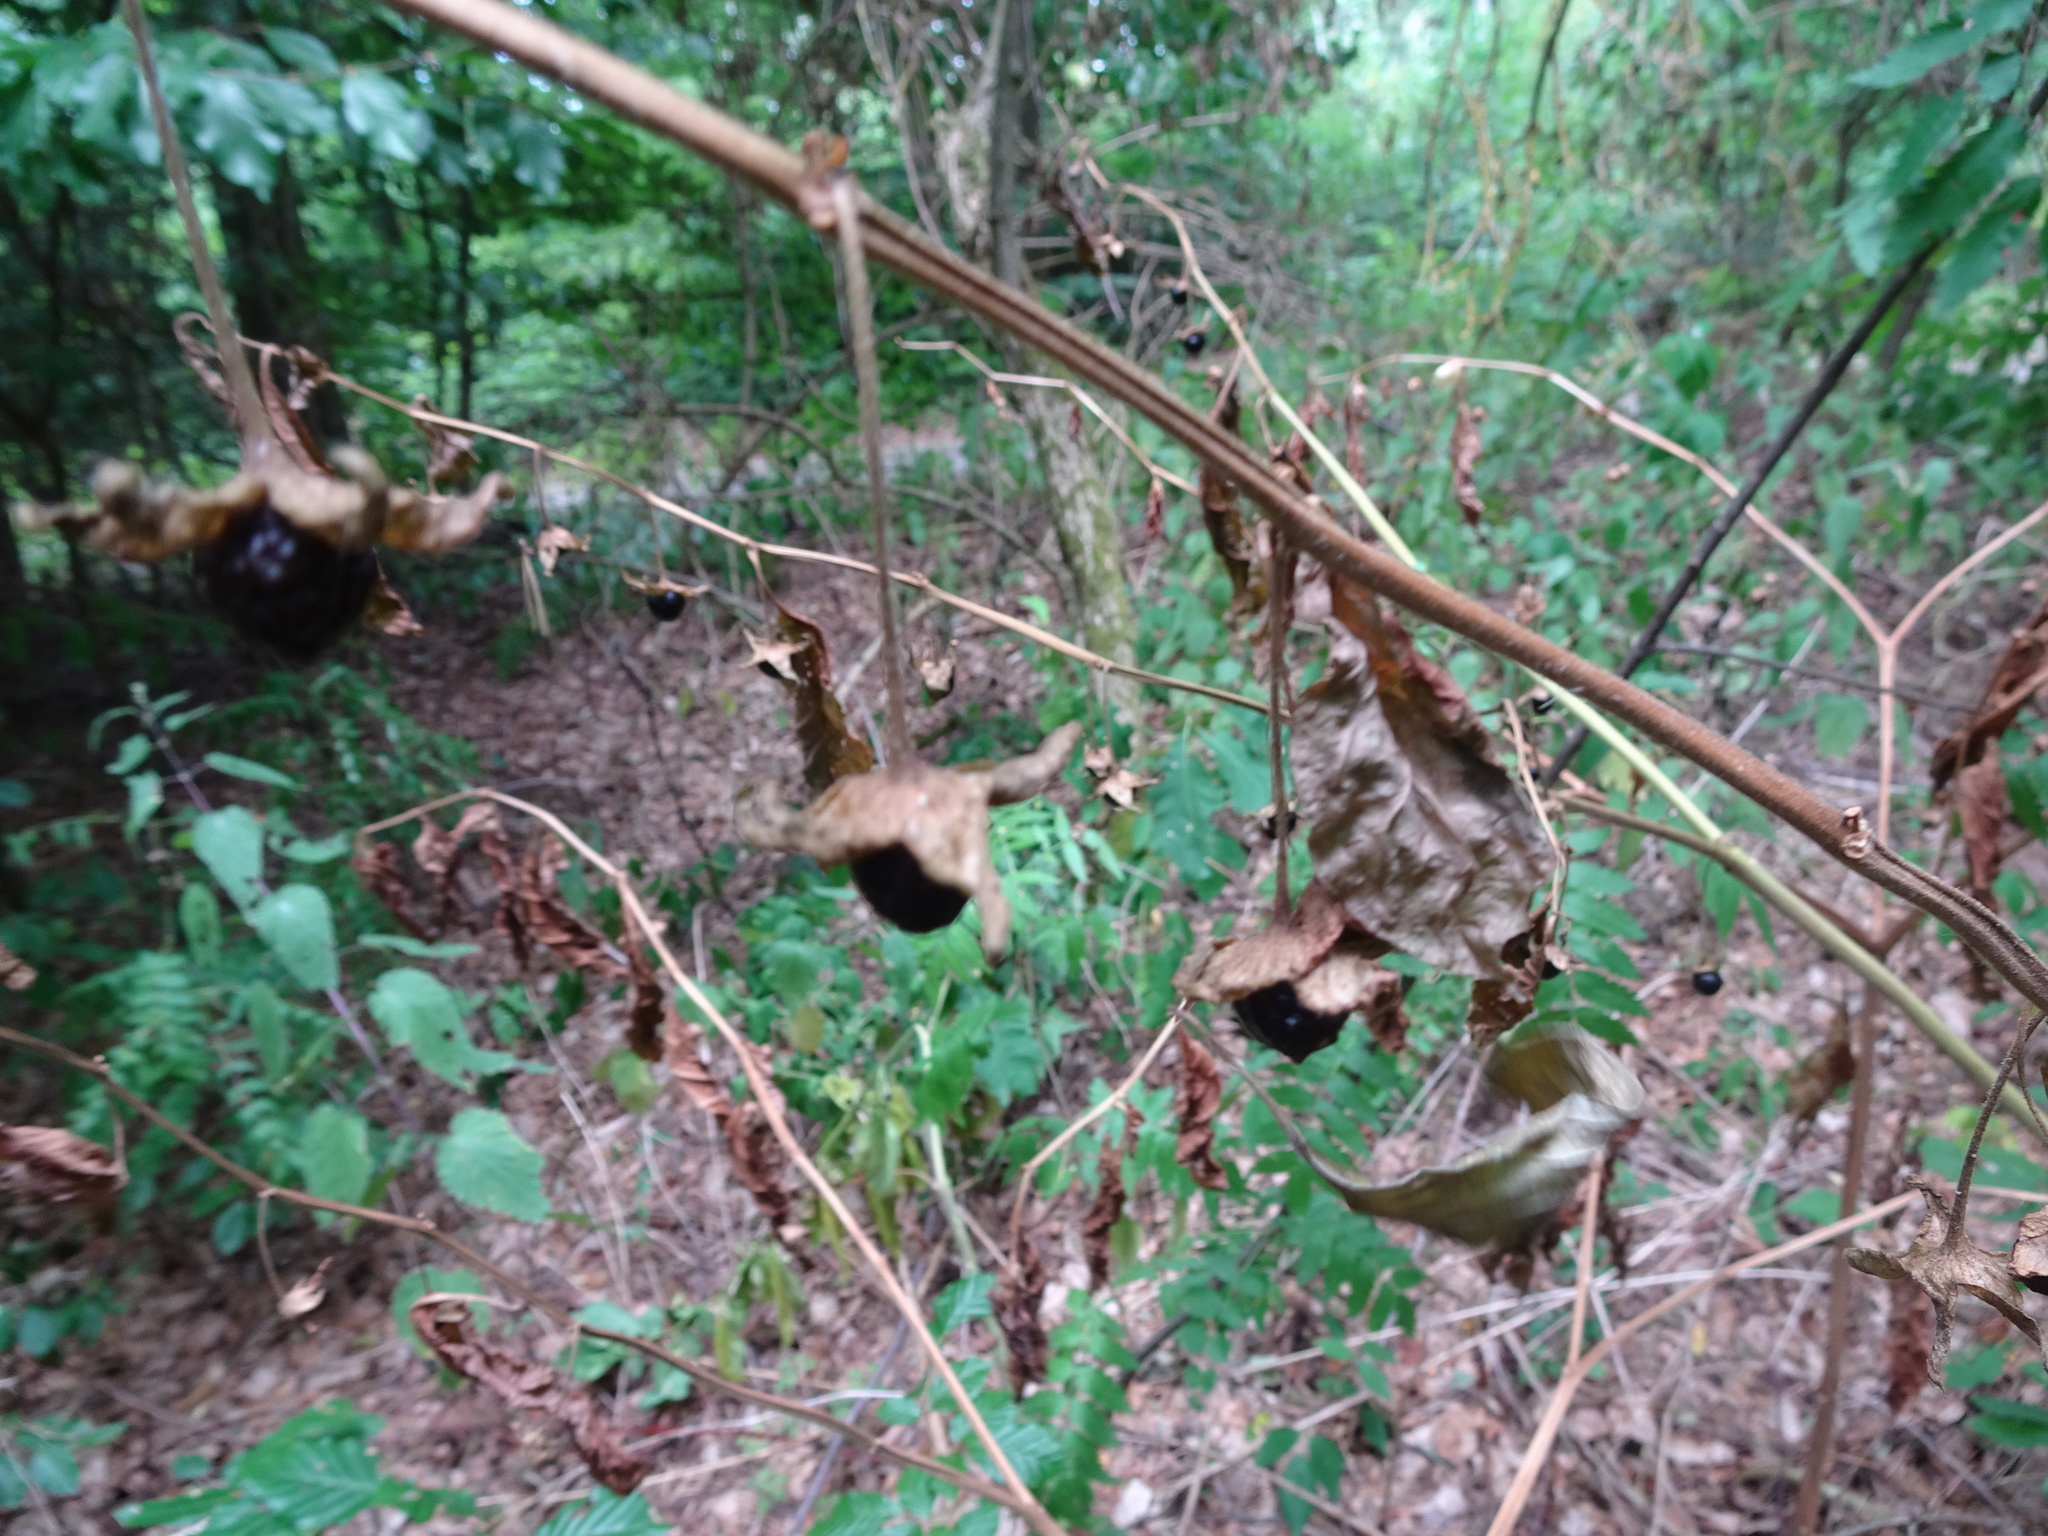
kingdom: Plantae
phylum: Tracheophyta
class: Magnoliopsida
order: Solanales
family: Solanaceae
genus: Atropa
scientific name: Atropa belladonna
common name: Deadly nightshade
